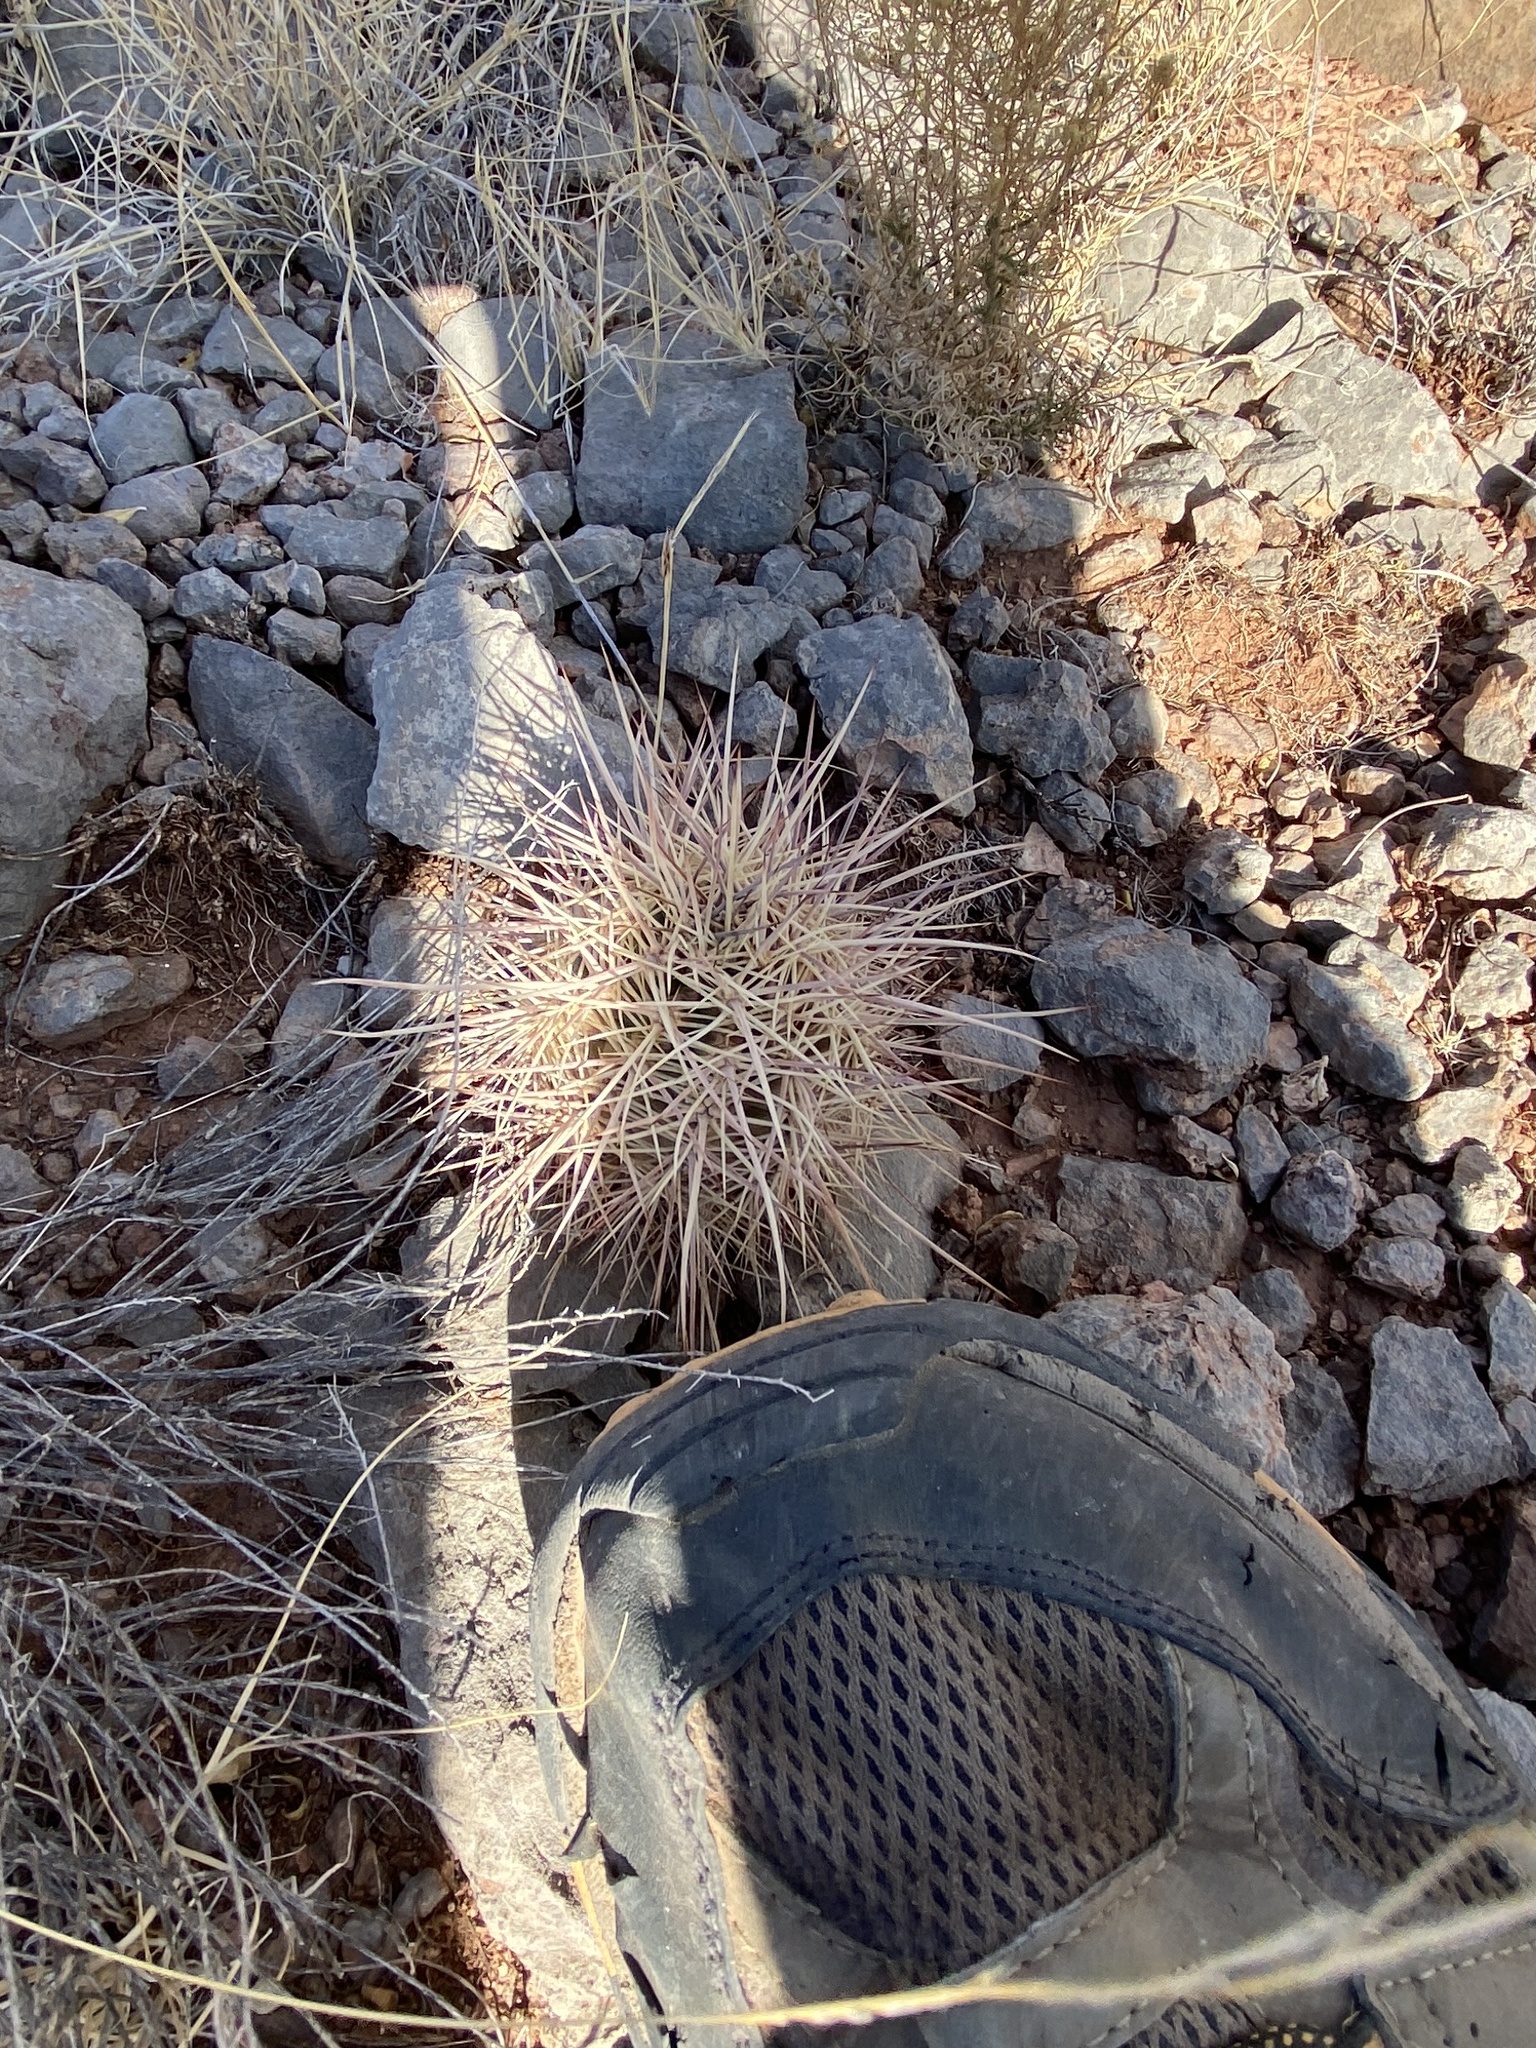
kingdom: Plantae
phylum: Tracheophyta
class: Magnoliopsida
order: Caryophyllales
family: Cactaceae
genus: Echinocereus
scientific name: Echinocereus coccineus
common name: Scarlet hedgehog cactus
